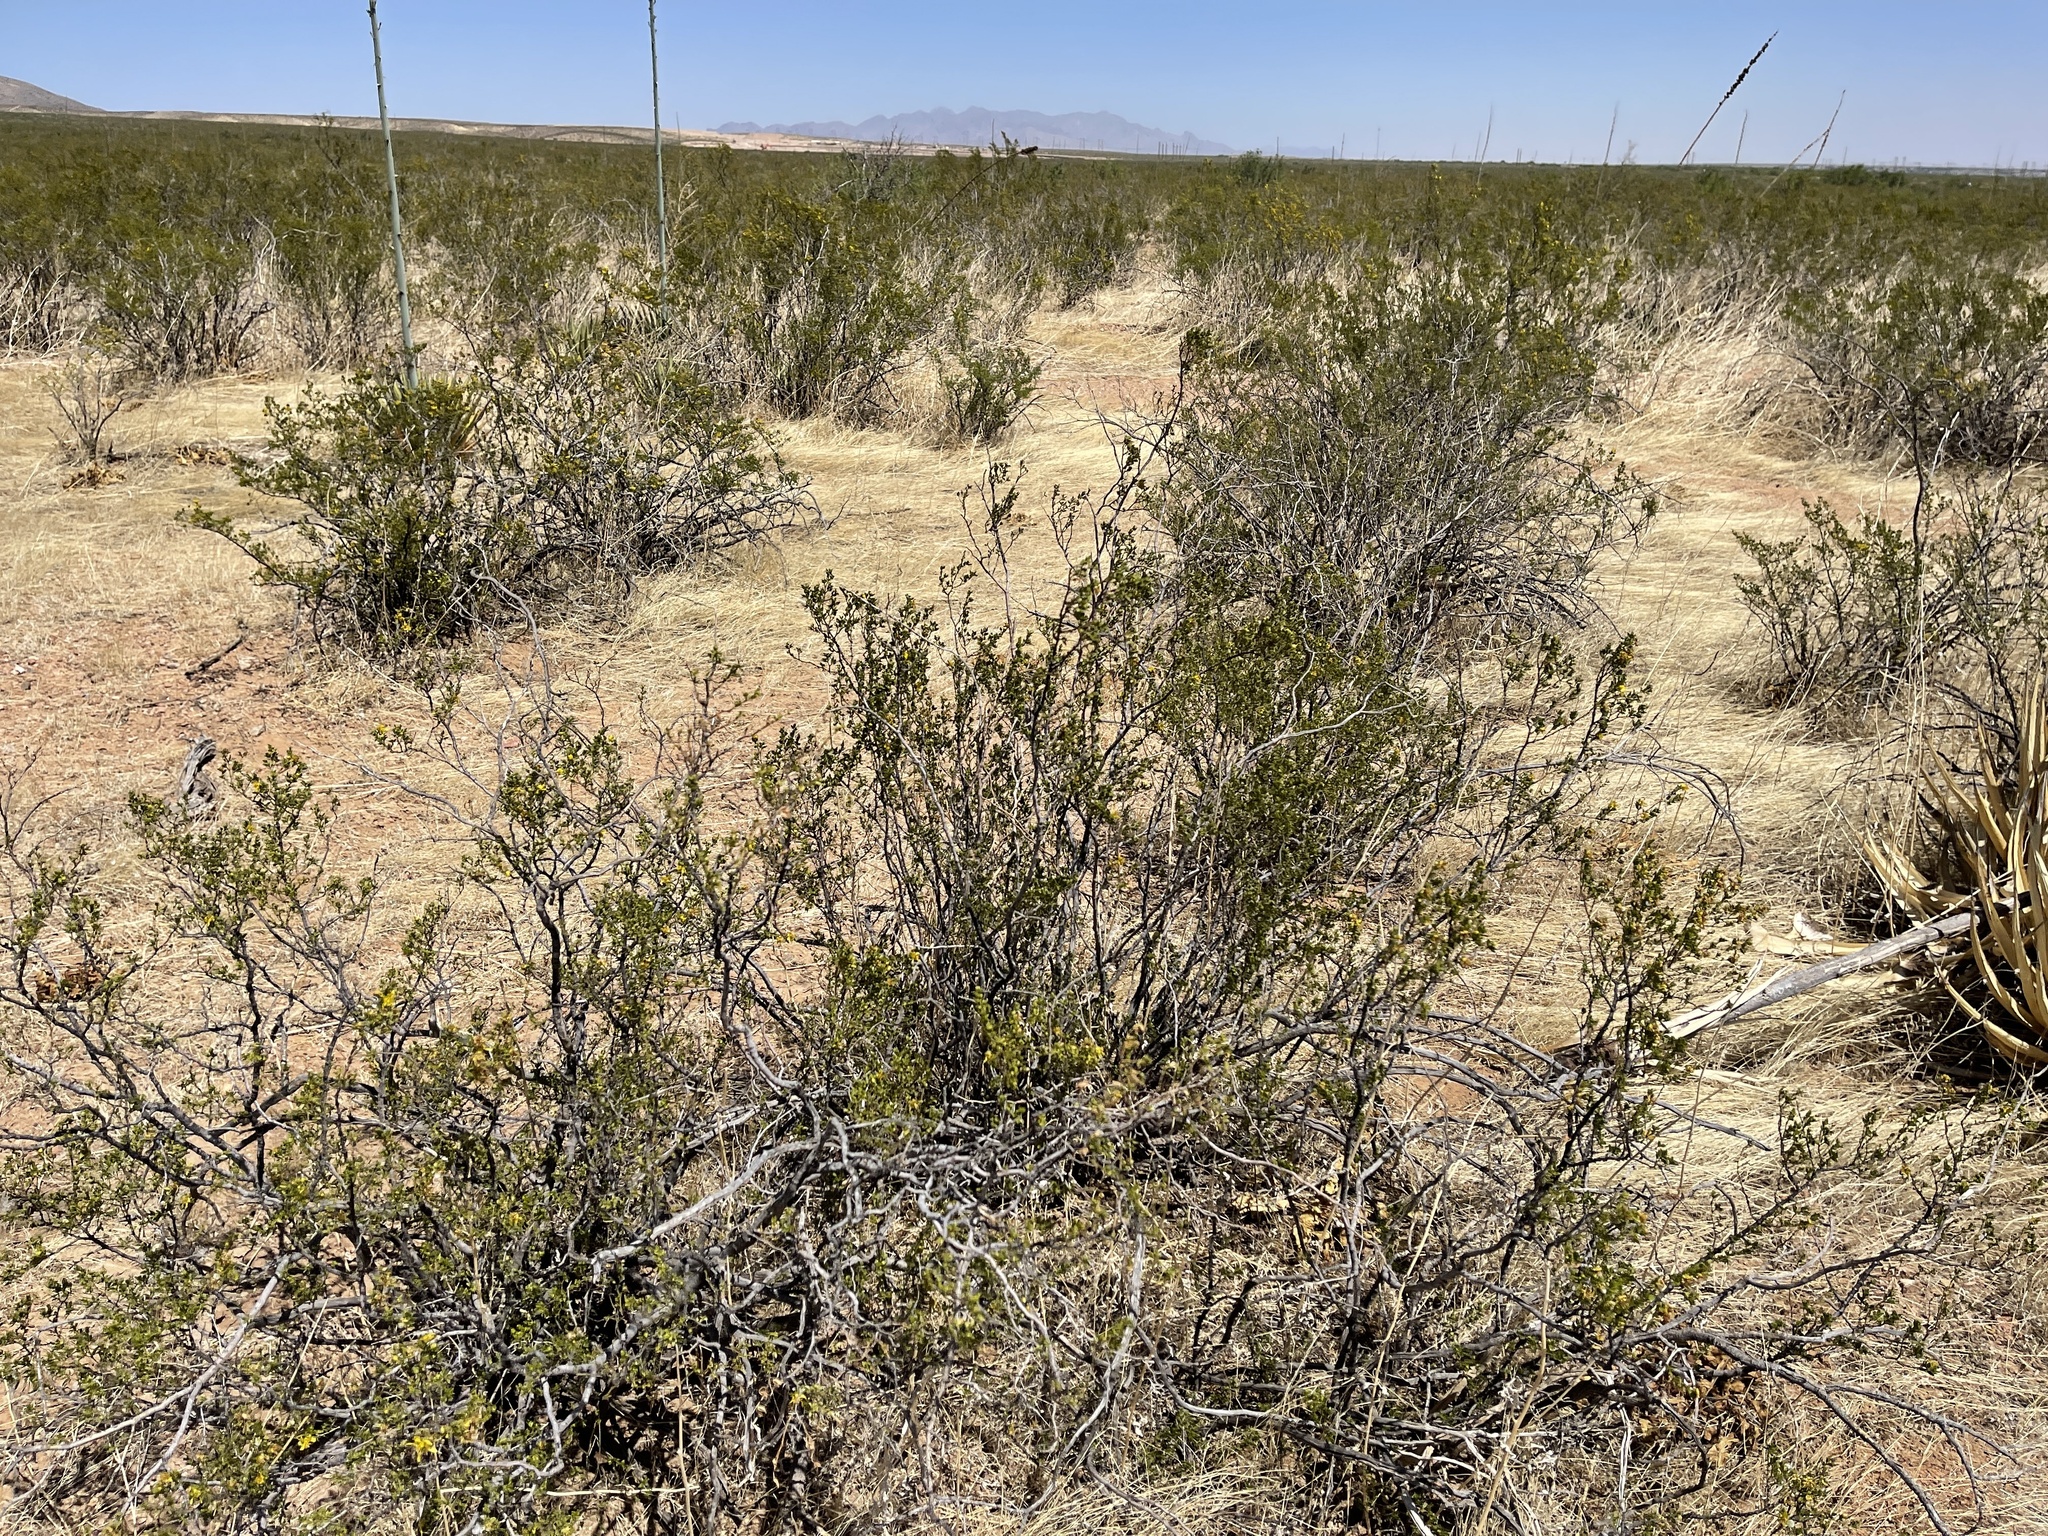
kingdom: Plantae
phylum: Tracheophyta
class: Magnoliopsida
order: Zygophyllales
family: Zygophyllaceae
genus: Larrea
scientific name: Larrea tridentata
